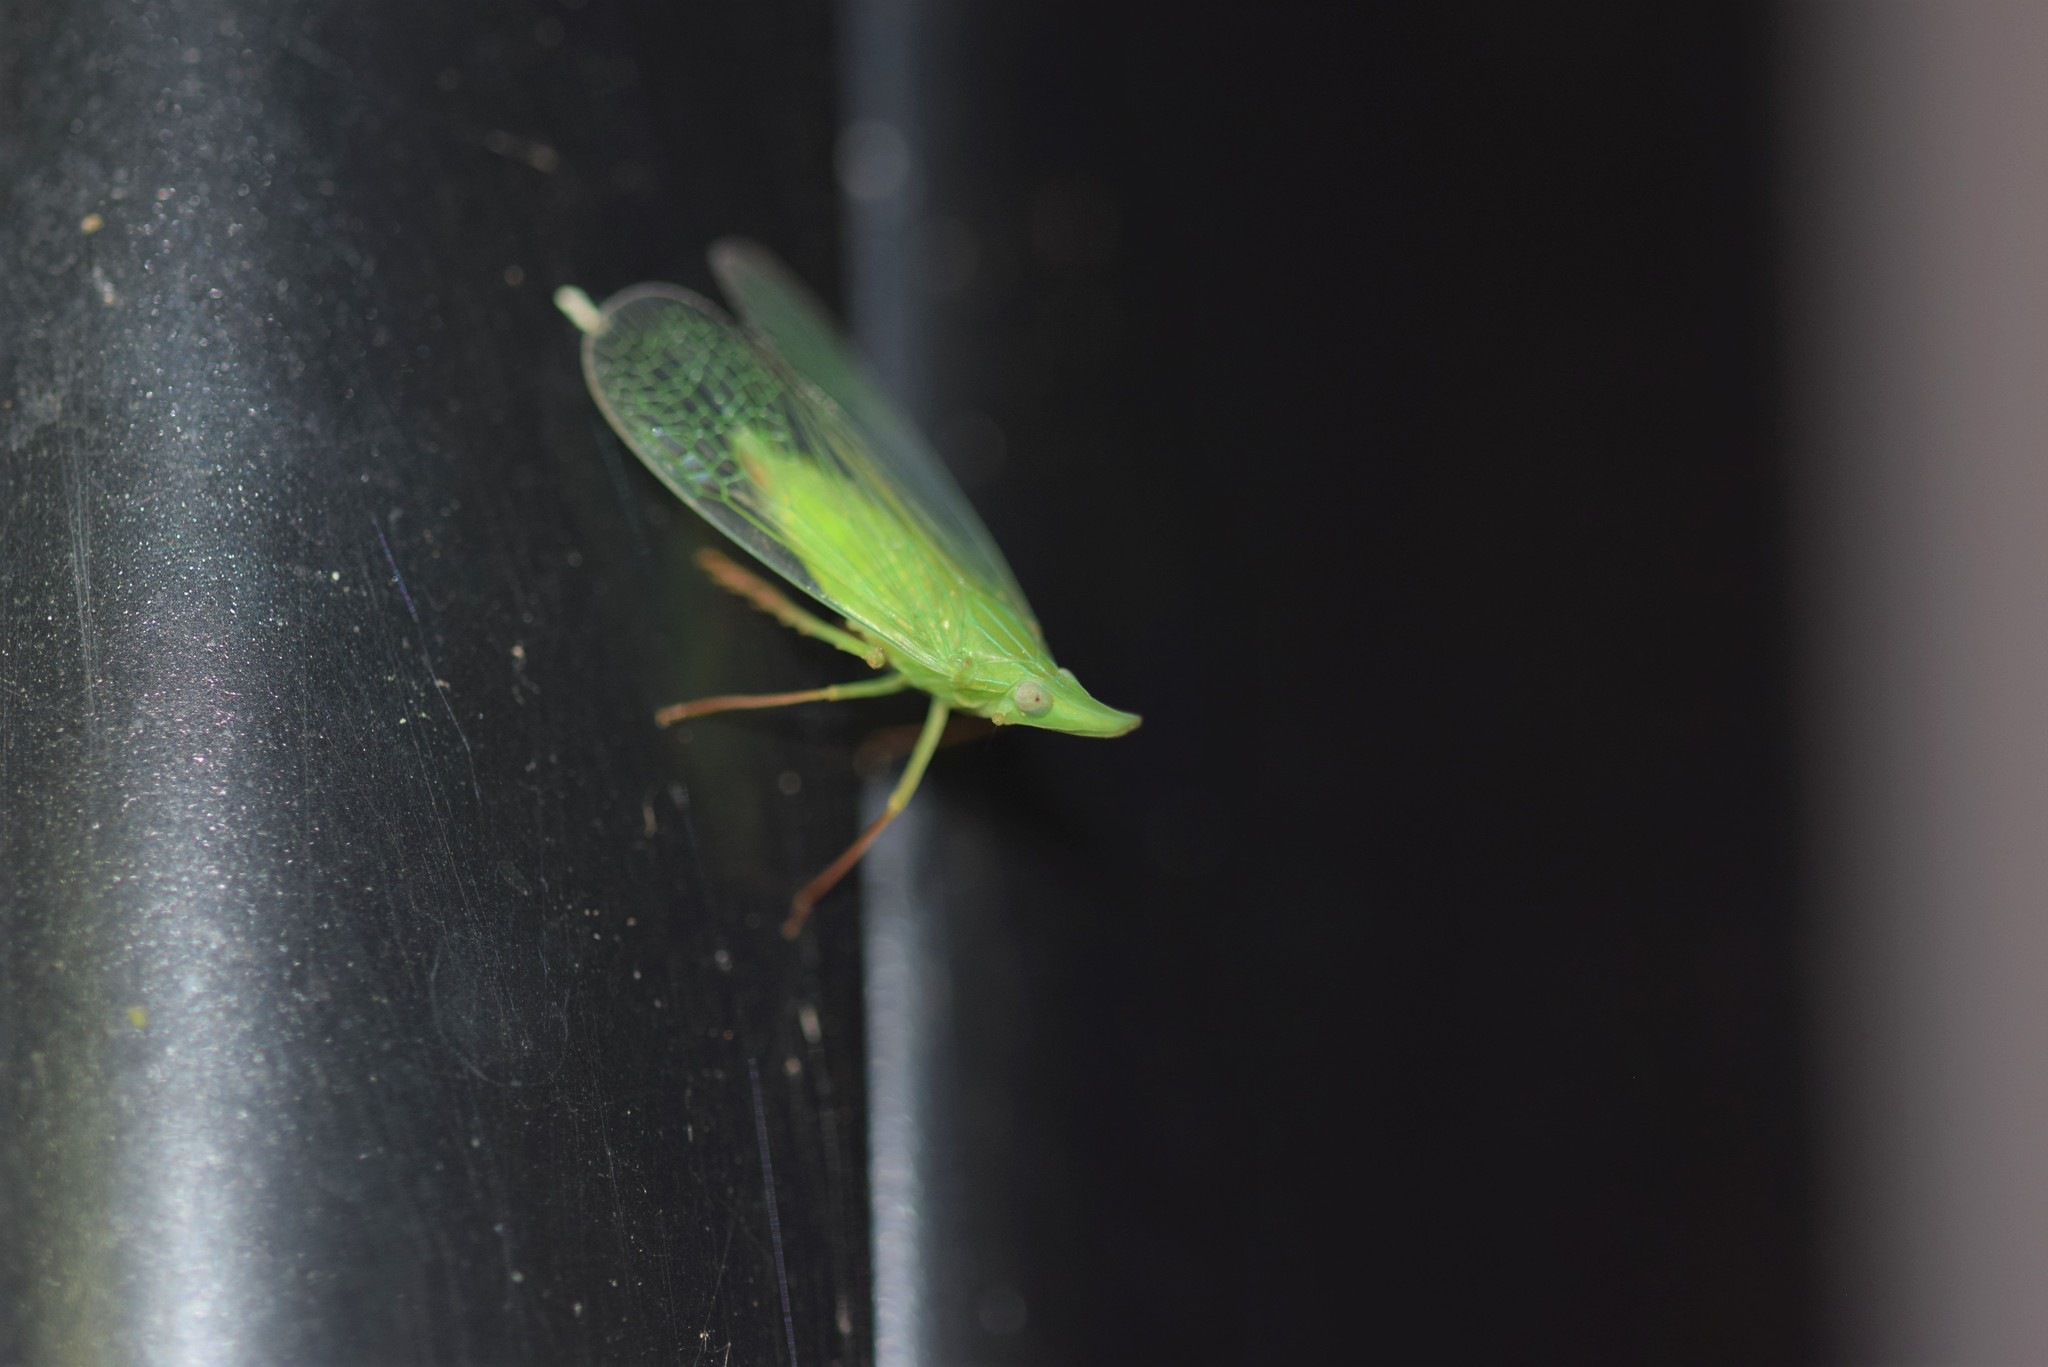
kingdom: Animalia
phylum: Arthropoda
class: Insecta
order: Hemiptera
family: Dictyopharidae
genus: Rhynchomitra
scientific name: Rhynchomitra microrhina
